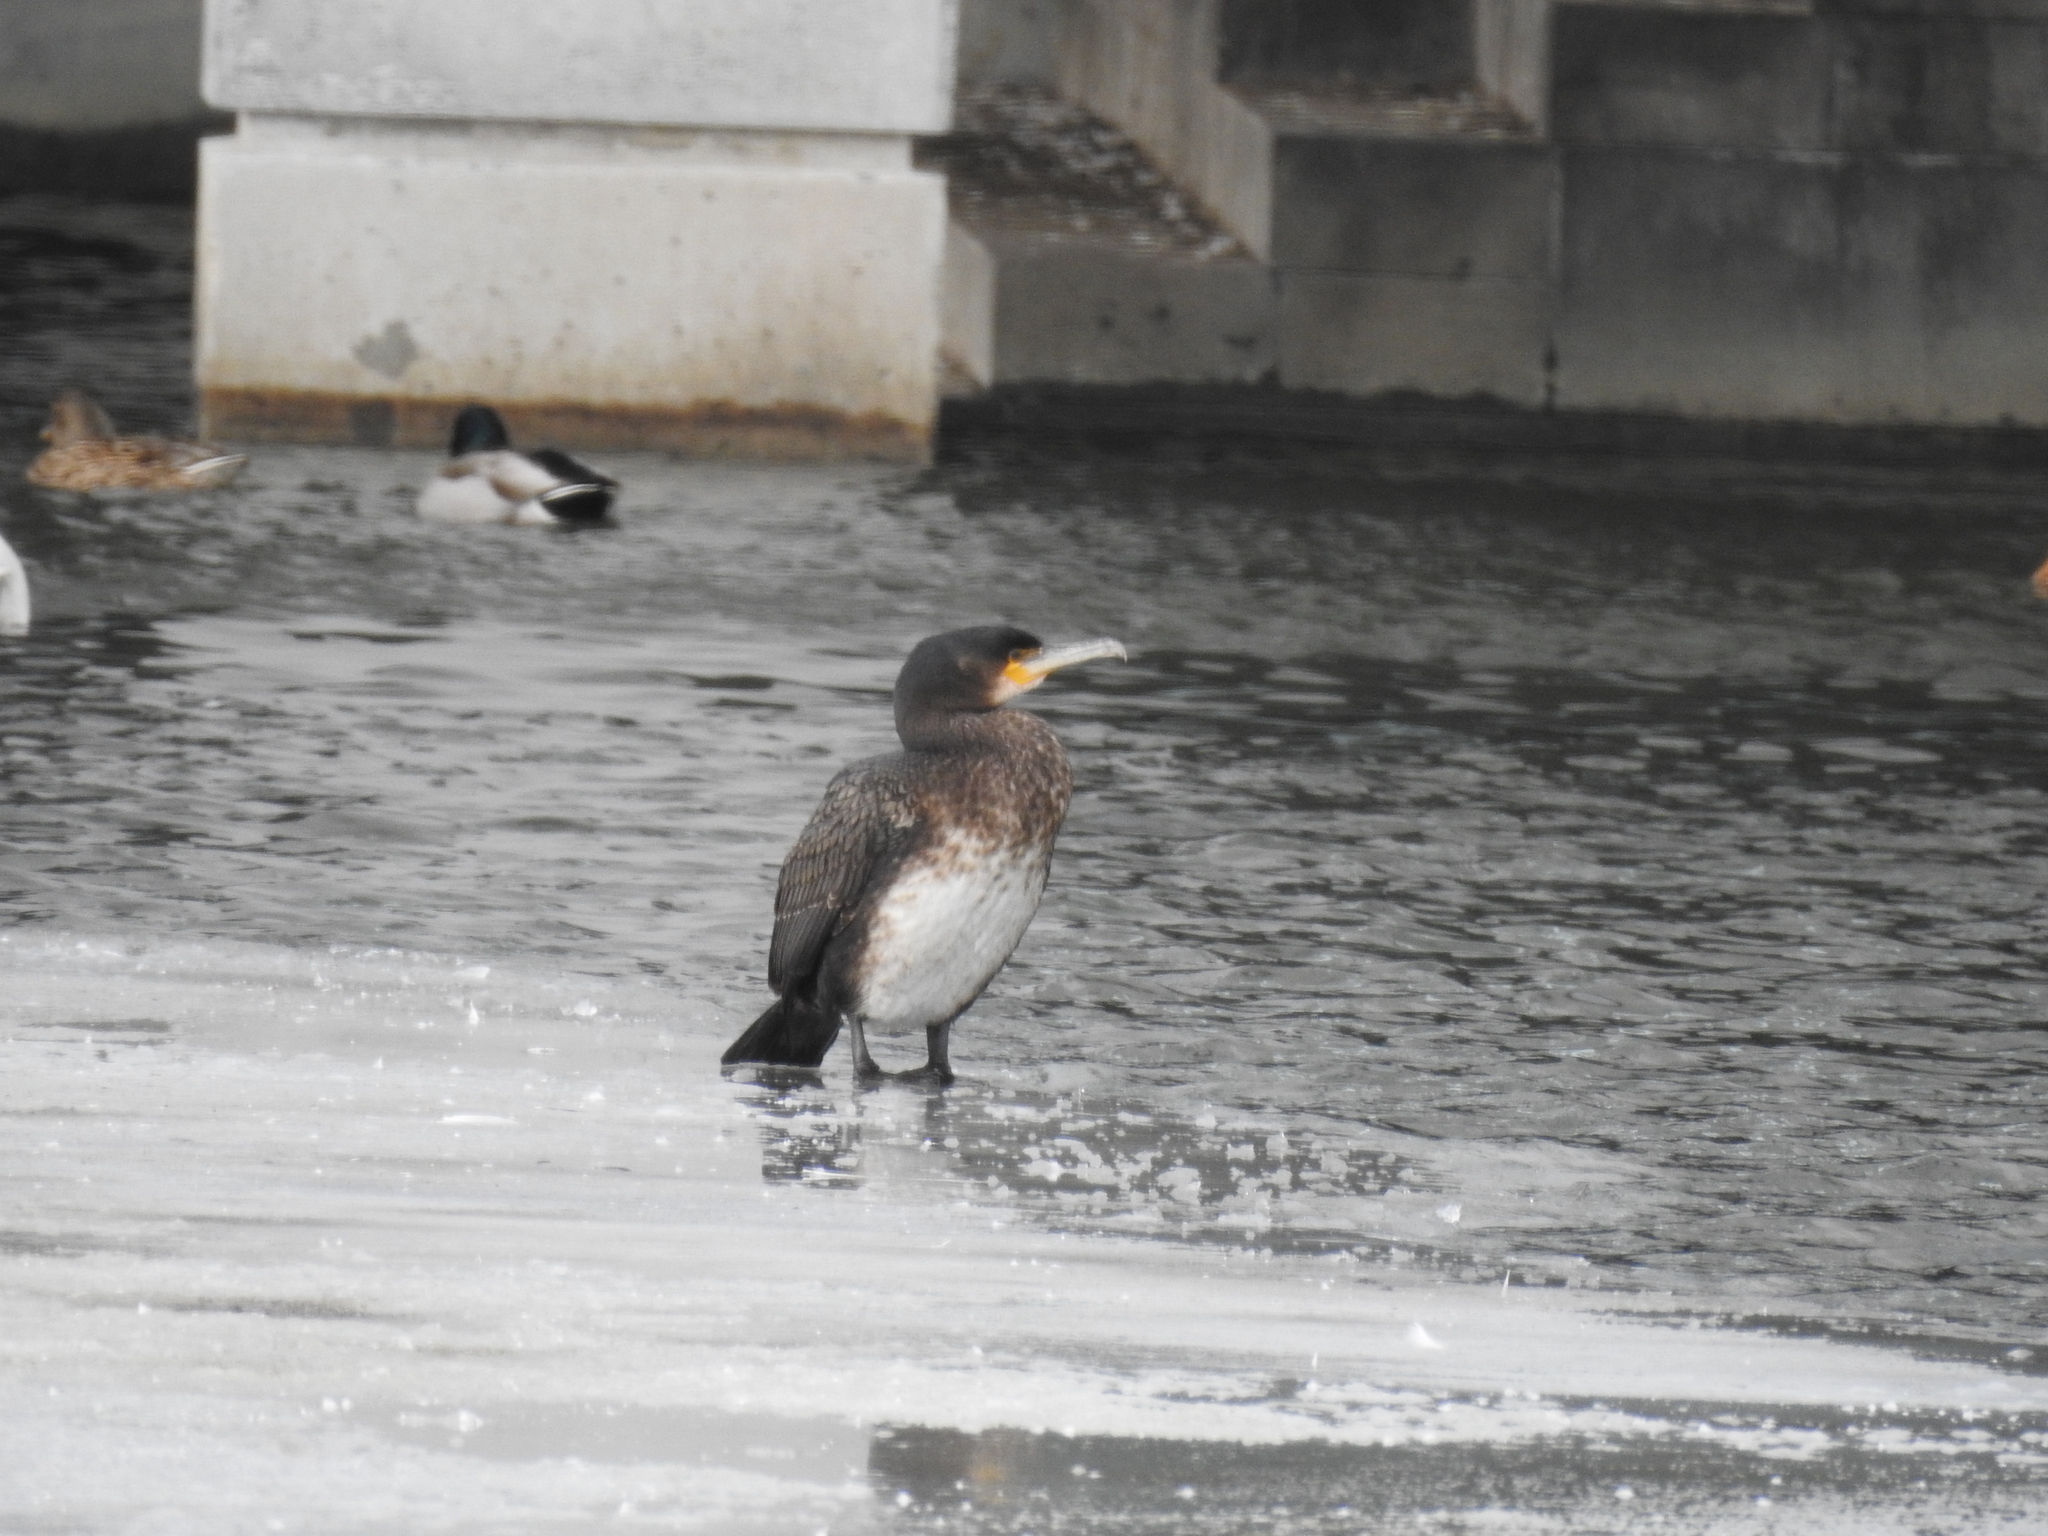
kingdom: Animalia
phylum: Chordata
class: Aves
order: Suliformes
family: Phalacrocoracidae
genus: Phalacrocorax
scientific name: Phalacrocorax carbo
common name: Great cormorant
